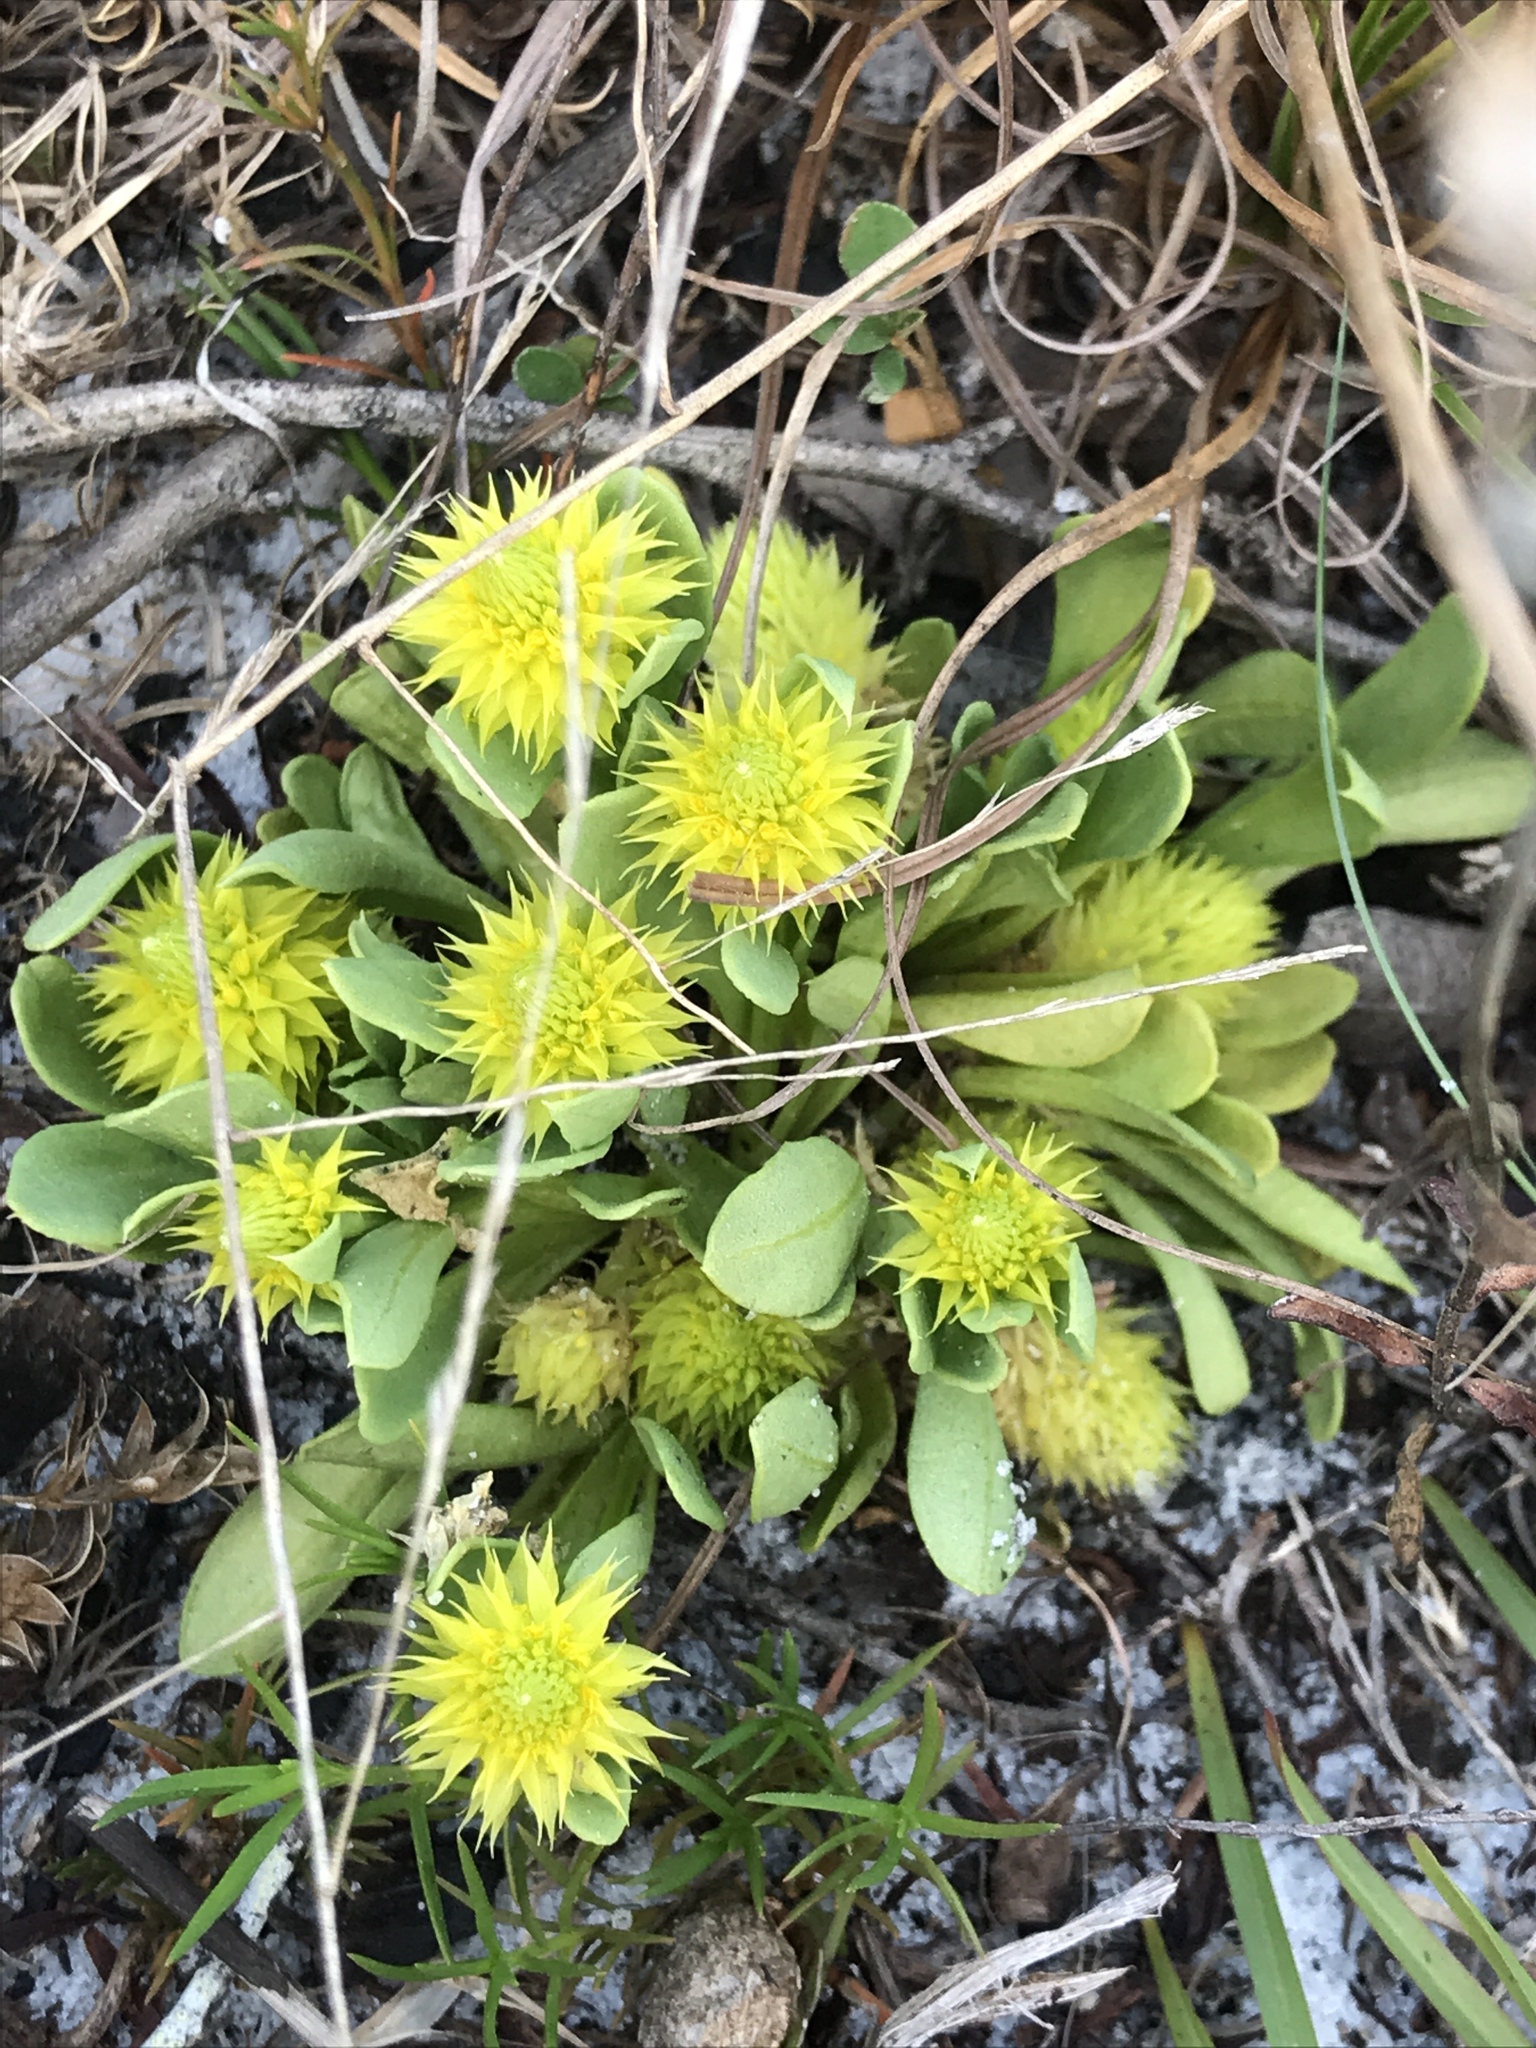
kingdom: Plantae
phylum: Tracheophyta
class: Magnoliopsida
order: Fabales
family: Polygalaceae
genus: Polygala
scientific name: Polygala nana
